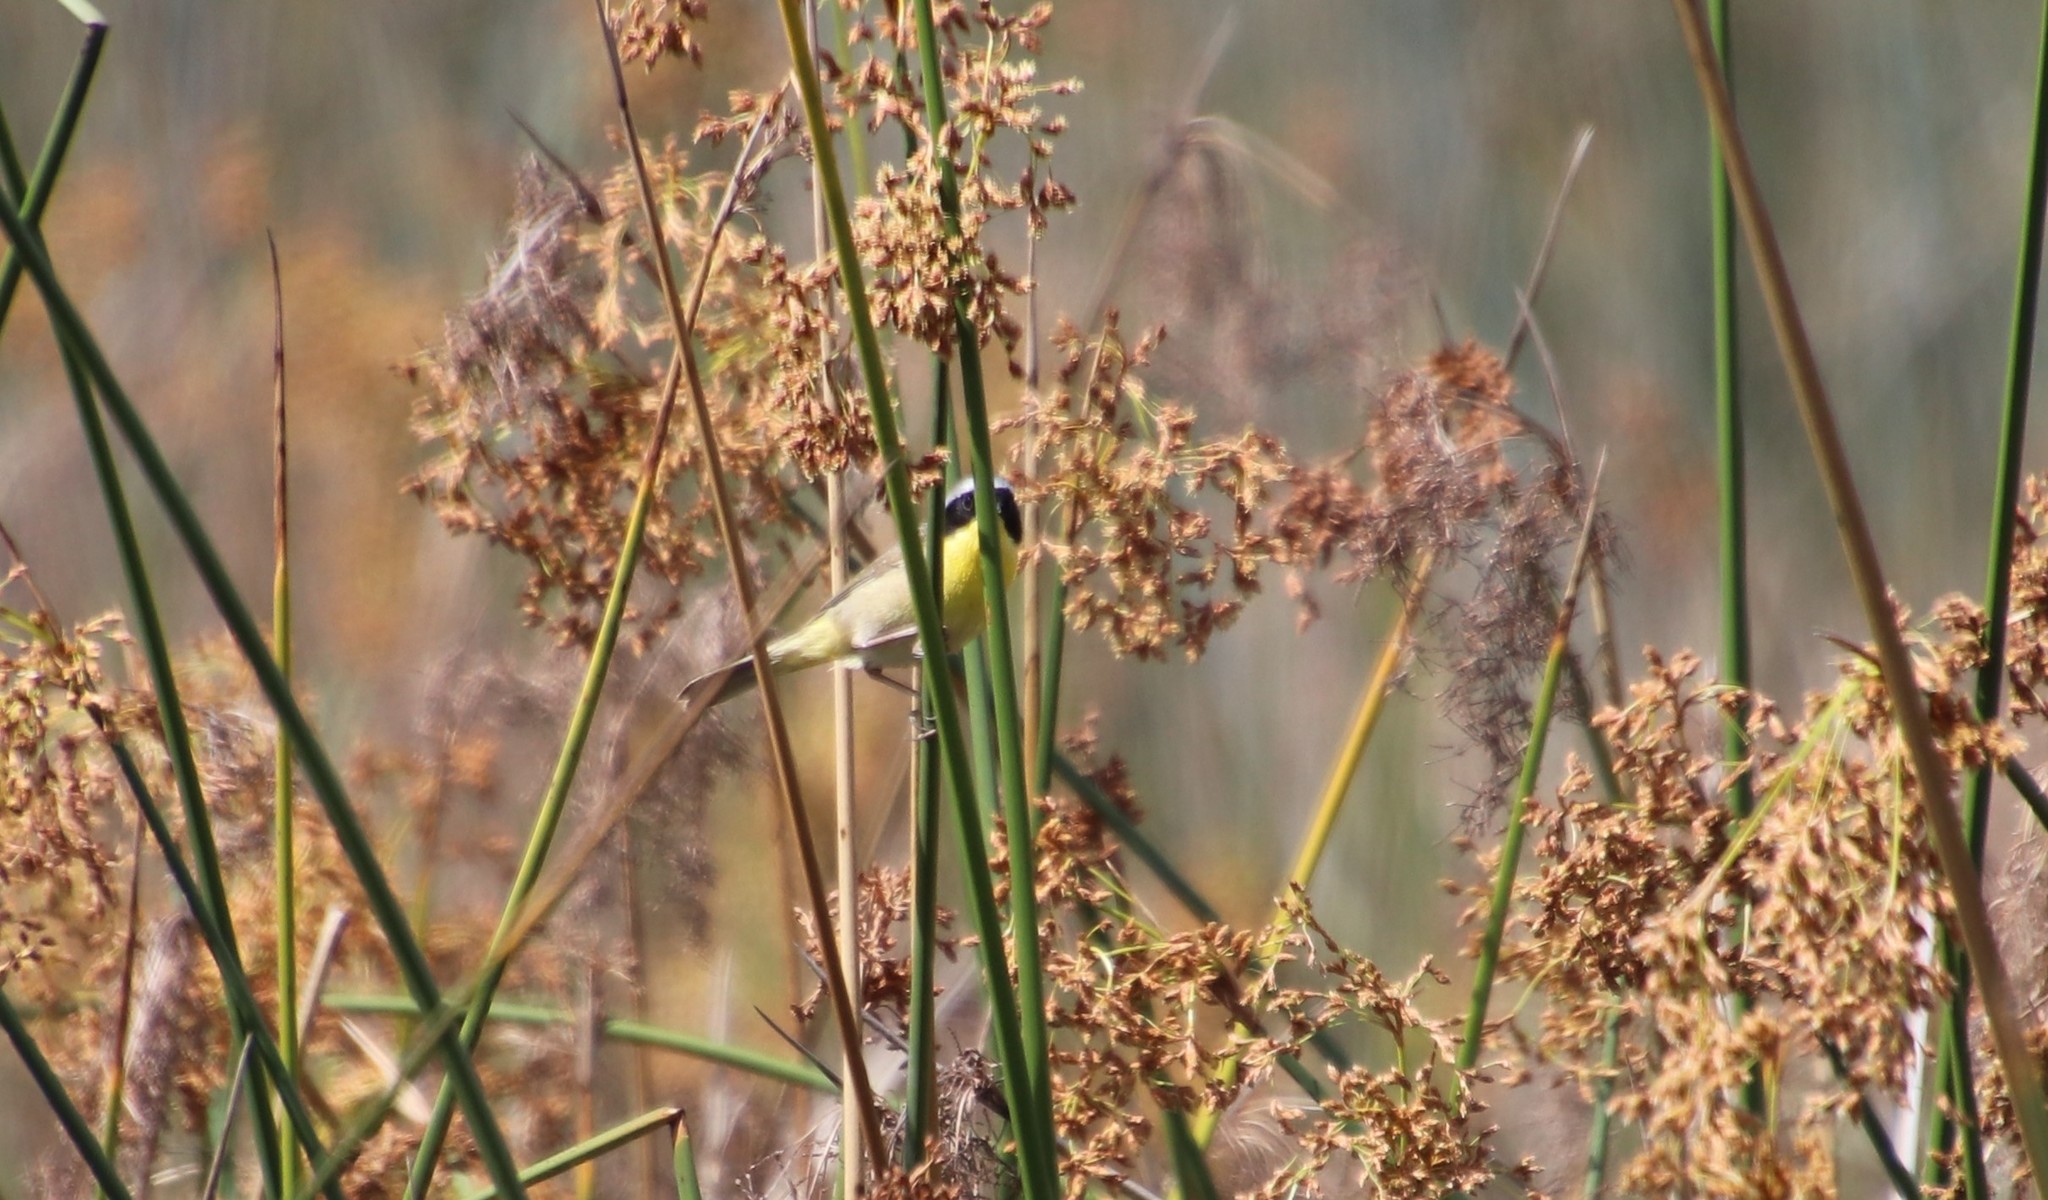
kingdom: Animalia
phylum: Chordata
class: Aves
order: Passeriformes
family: Parulidae
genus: Geothlypis
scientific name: Geothlypis trichas
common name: Common yellowthroat
